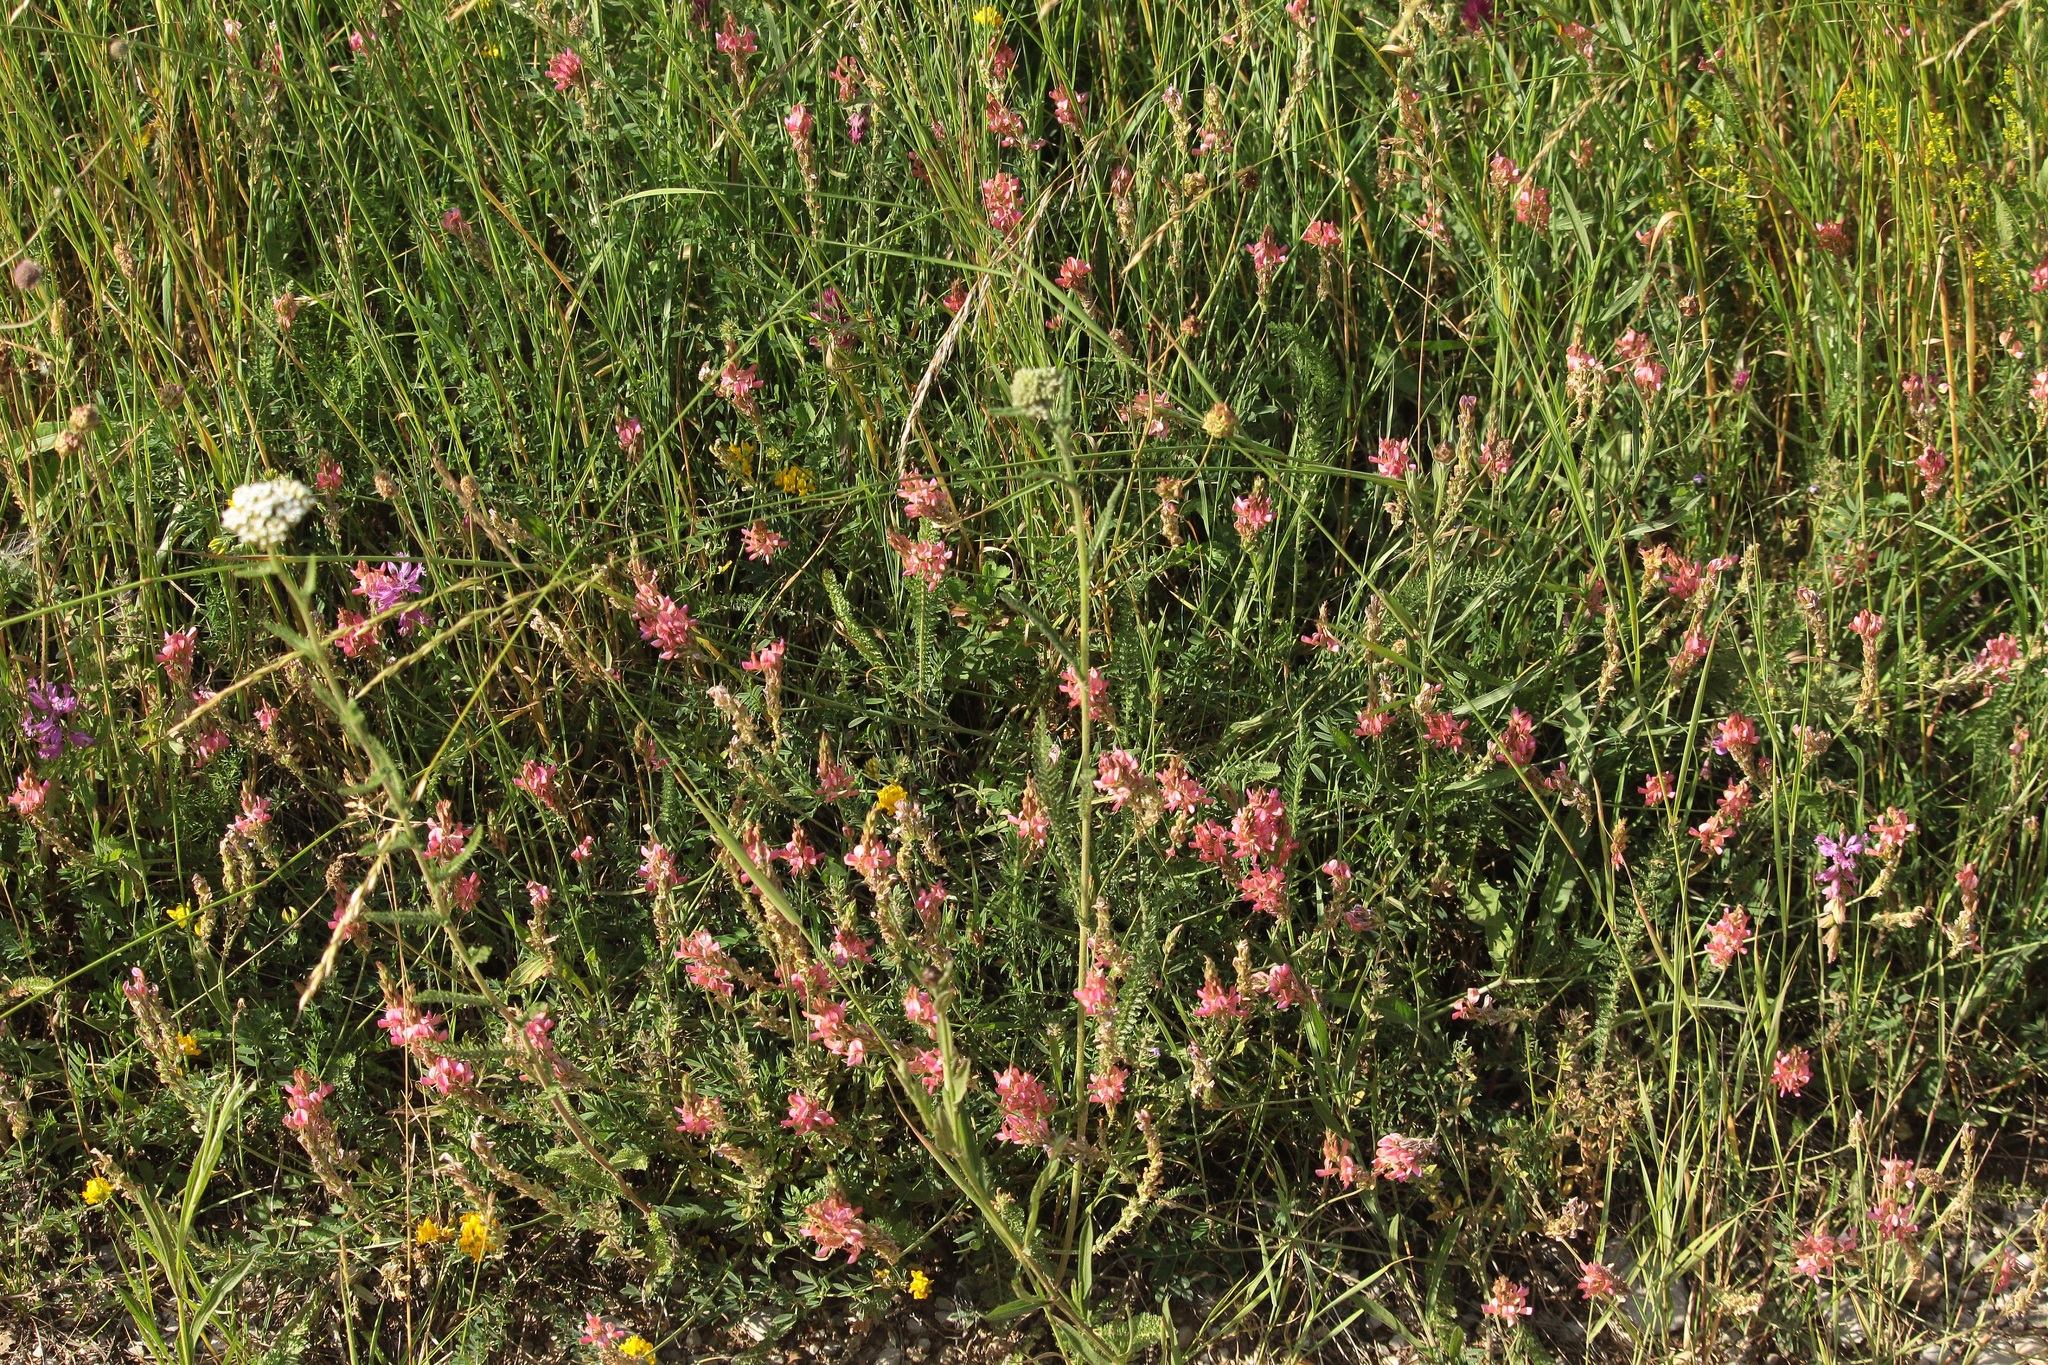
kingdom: Plantae
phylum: Tracheophyta
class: Magnoliopsida
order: Fabales
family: Fabaceae
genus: Onobrychis
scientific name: Onobrychis arenaria
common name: Sand esparcet
